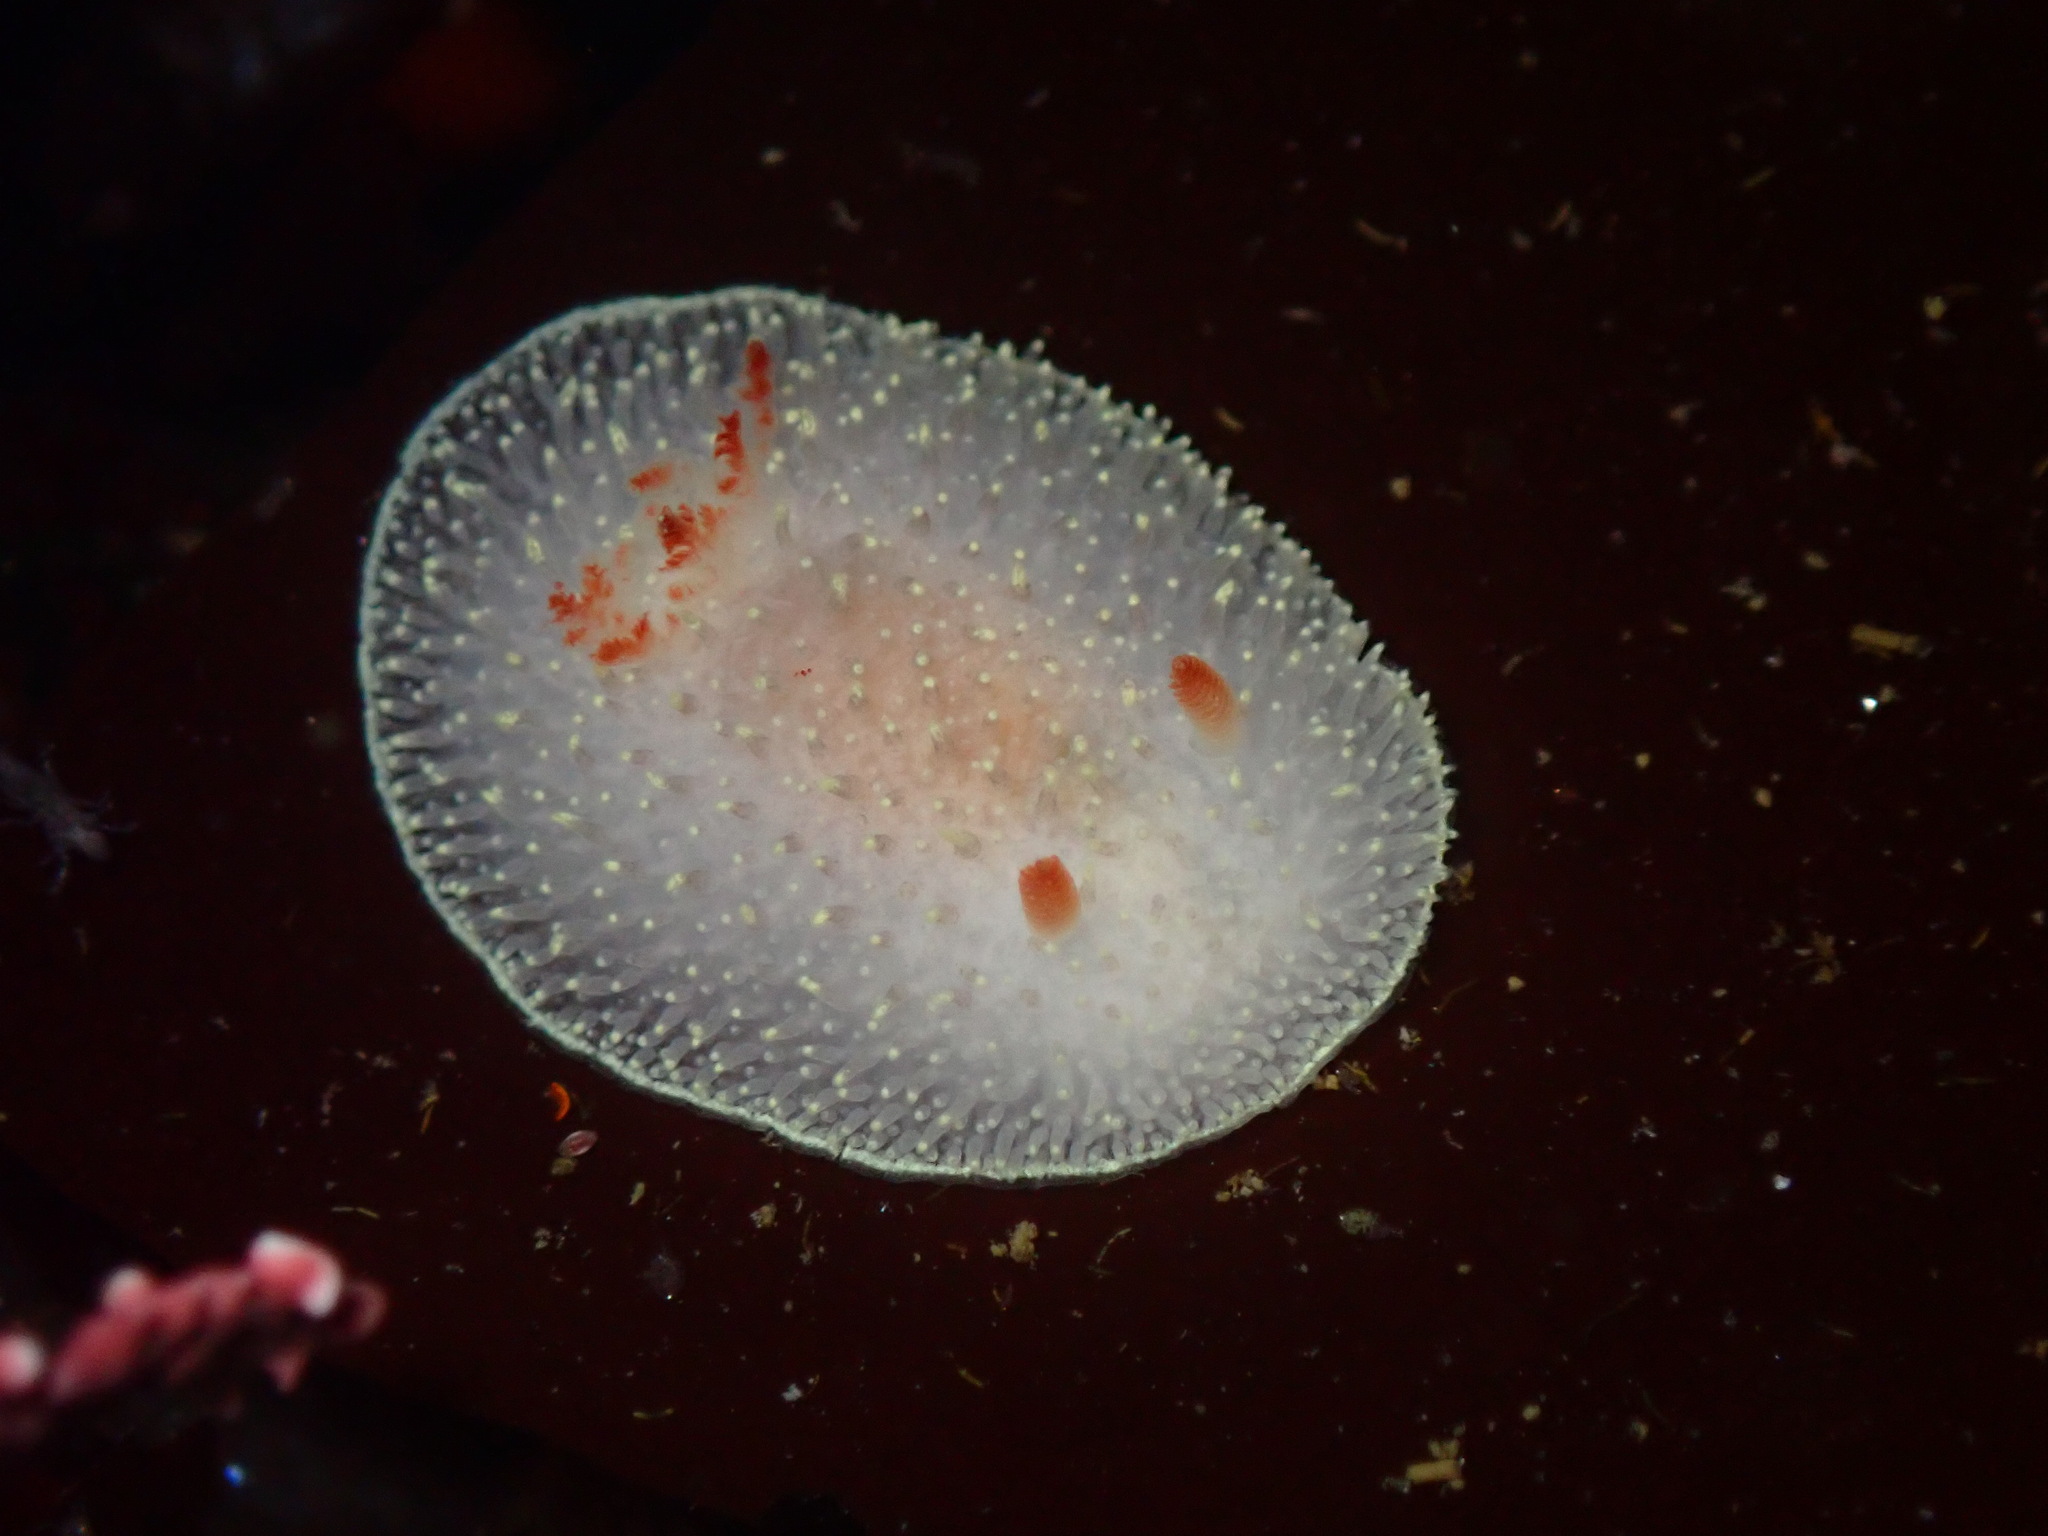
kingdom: Animalia
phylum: Mollusca
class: Gastropoda
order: Nudibranchia
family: Onchidorididae
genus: Acanthodoris
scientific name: Acanthodoris nanaimoensis
